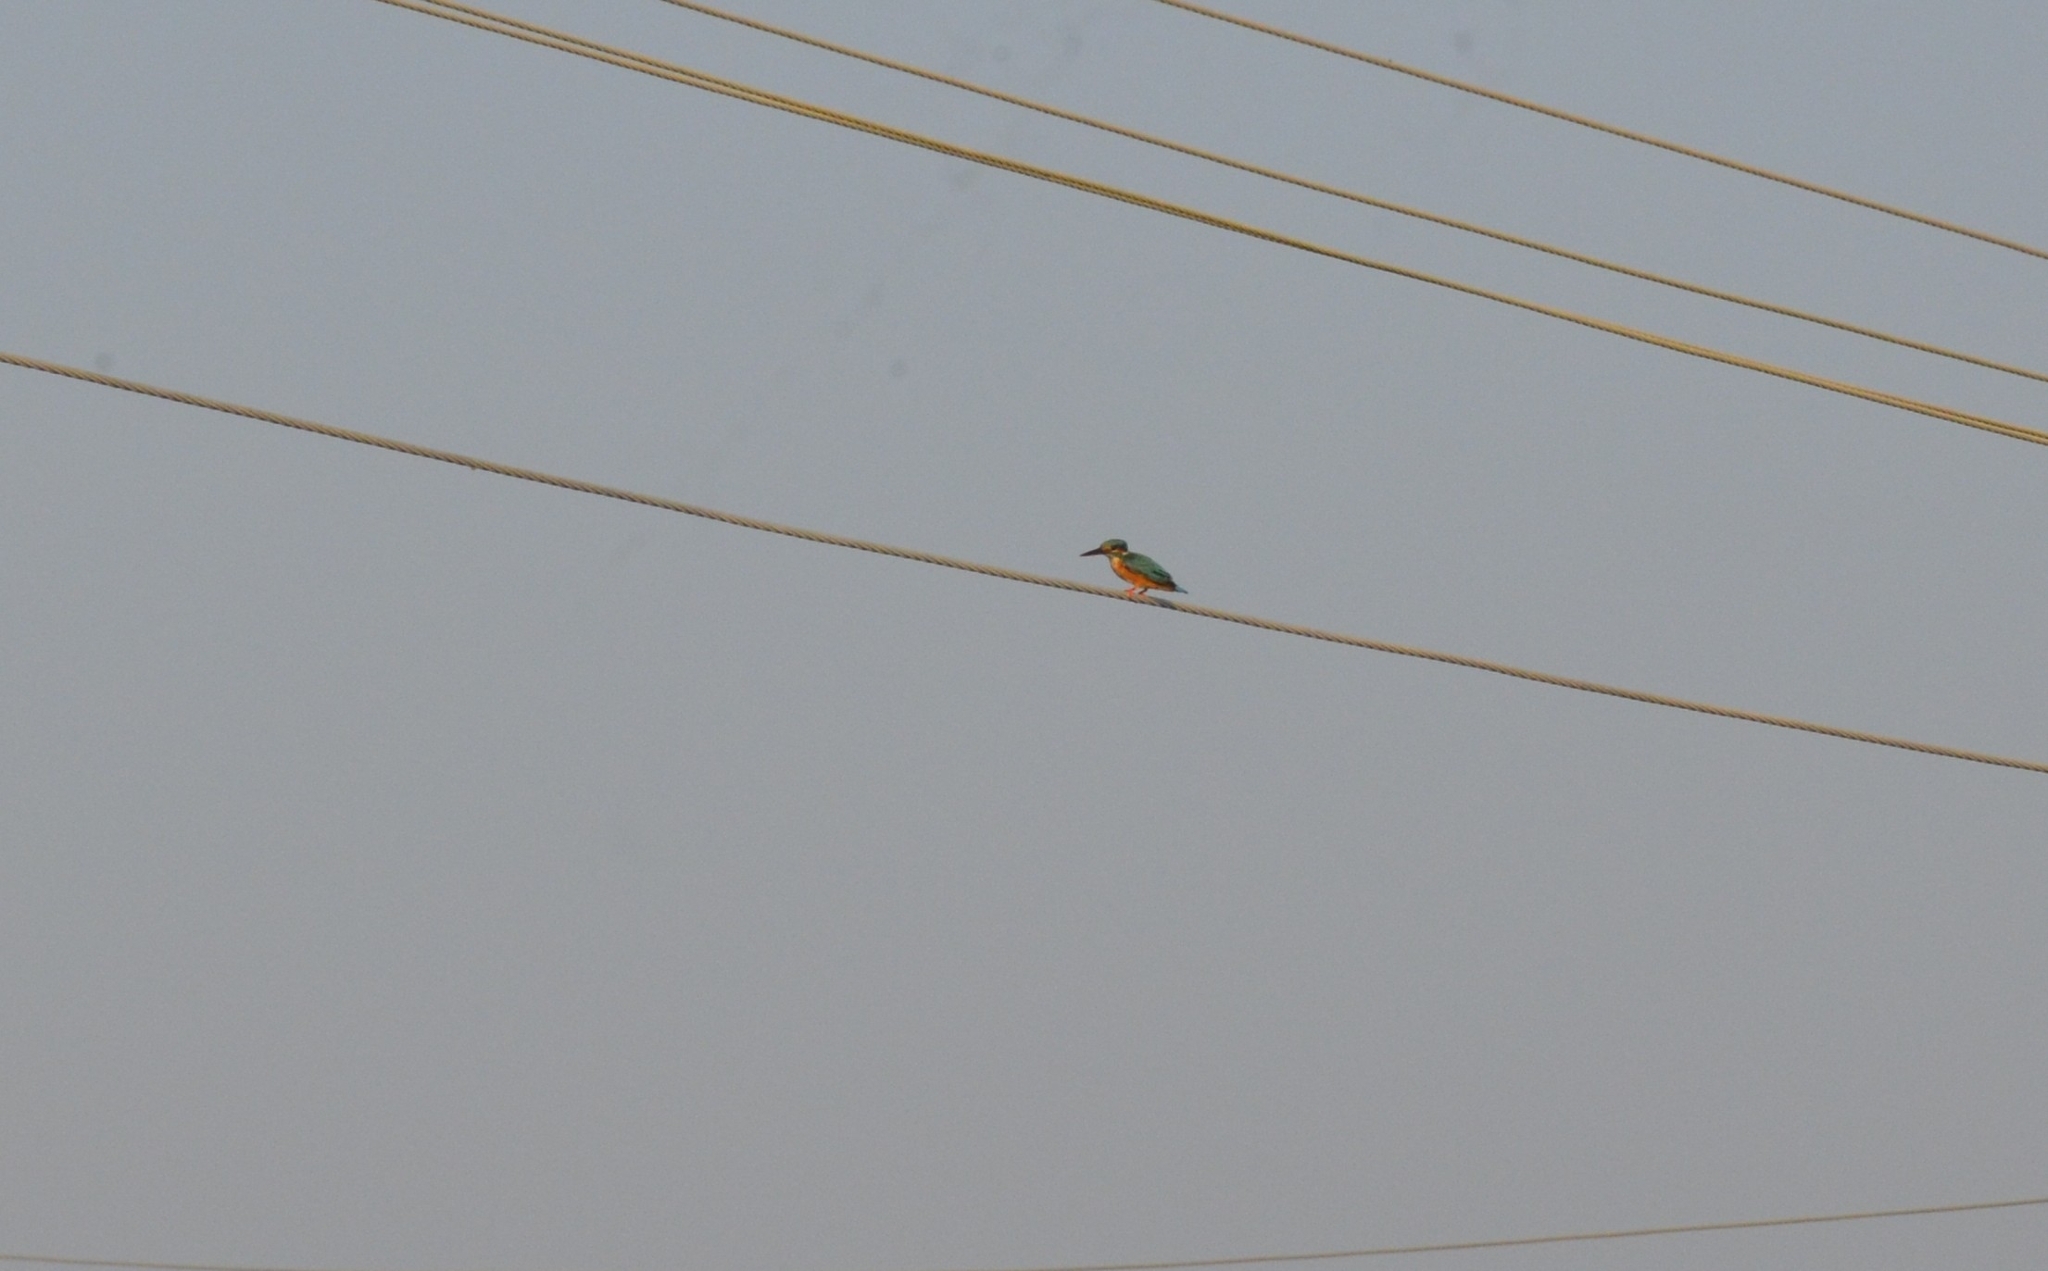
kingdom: Animalia
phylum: Chordata
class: Aves
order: Coraciiformes
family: Alcedinidae
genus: Alcedo
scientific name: Alcedo atthis
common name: Common kingfisher
